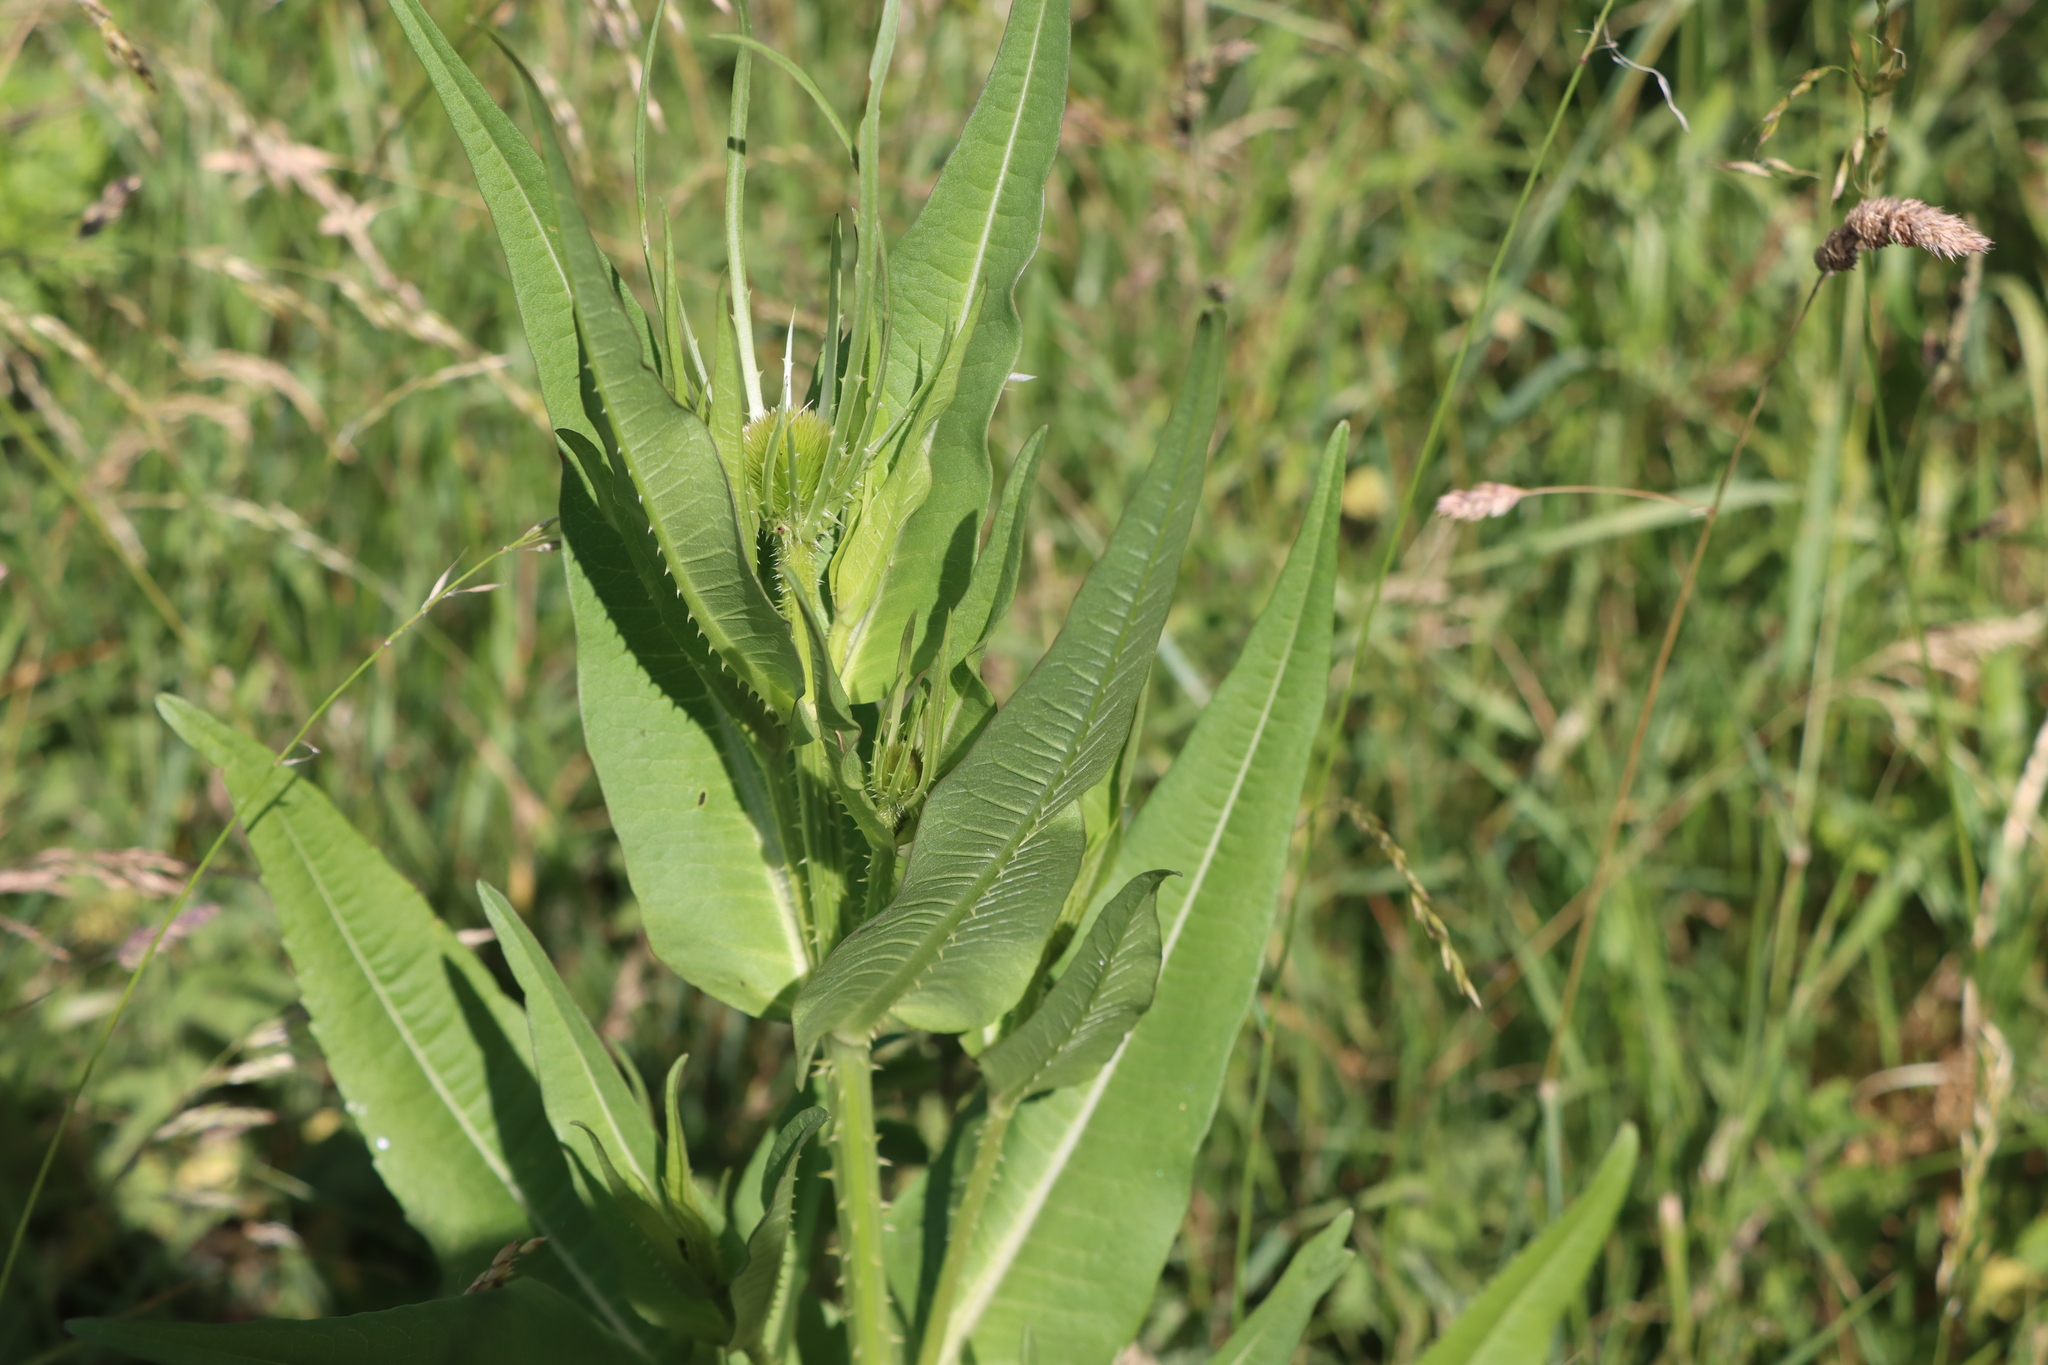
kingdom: Plantae
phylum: Tracheophyta
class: Magnoliopsida
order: Dipsacales
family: Caprifoliaceae
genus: Dipsacus
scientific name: Dipsacus fullonum
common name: Teasel
